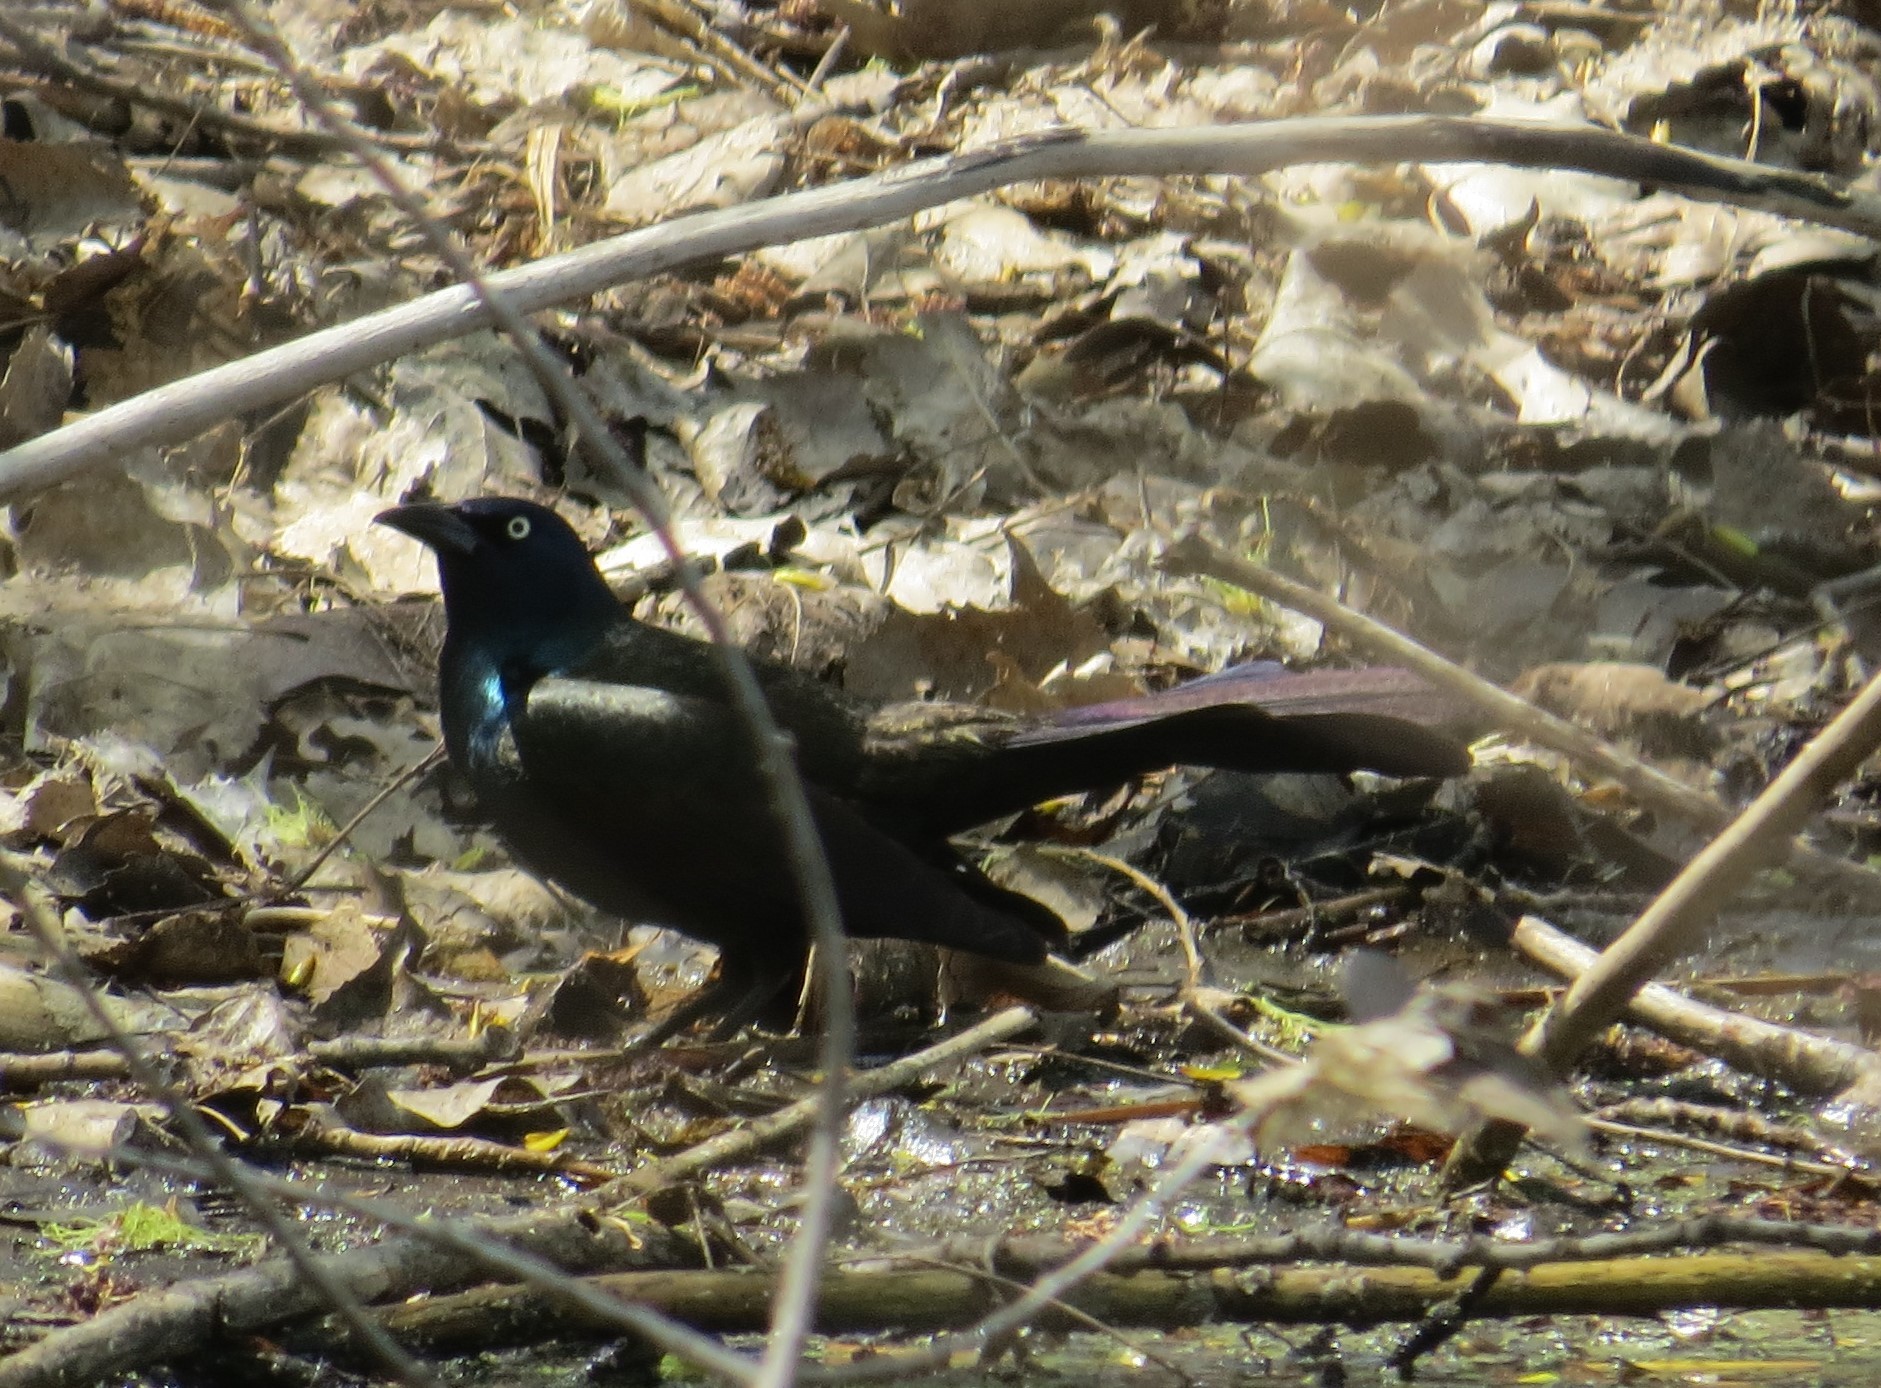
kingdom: Animalia
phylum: Chordata
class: Aves
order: Passeriformes
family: Icteridae
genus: Quiscalus
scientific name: Quiscalus quiscula
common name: Common grackle
